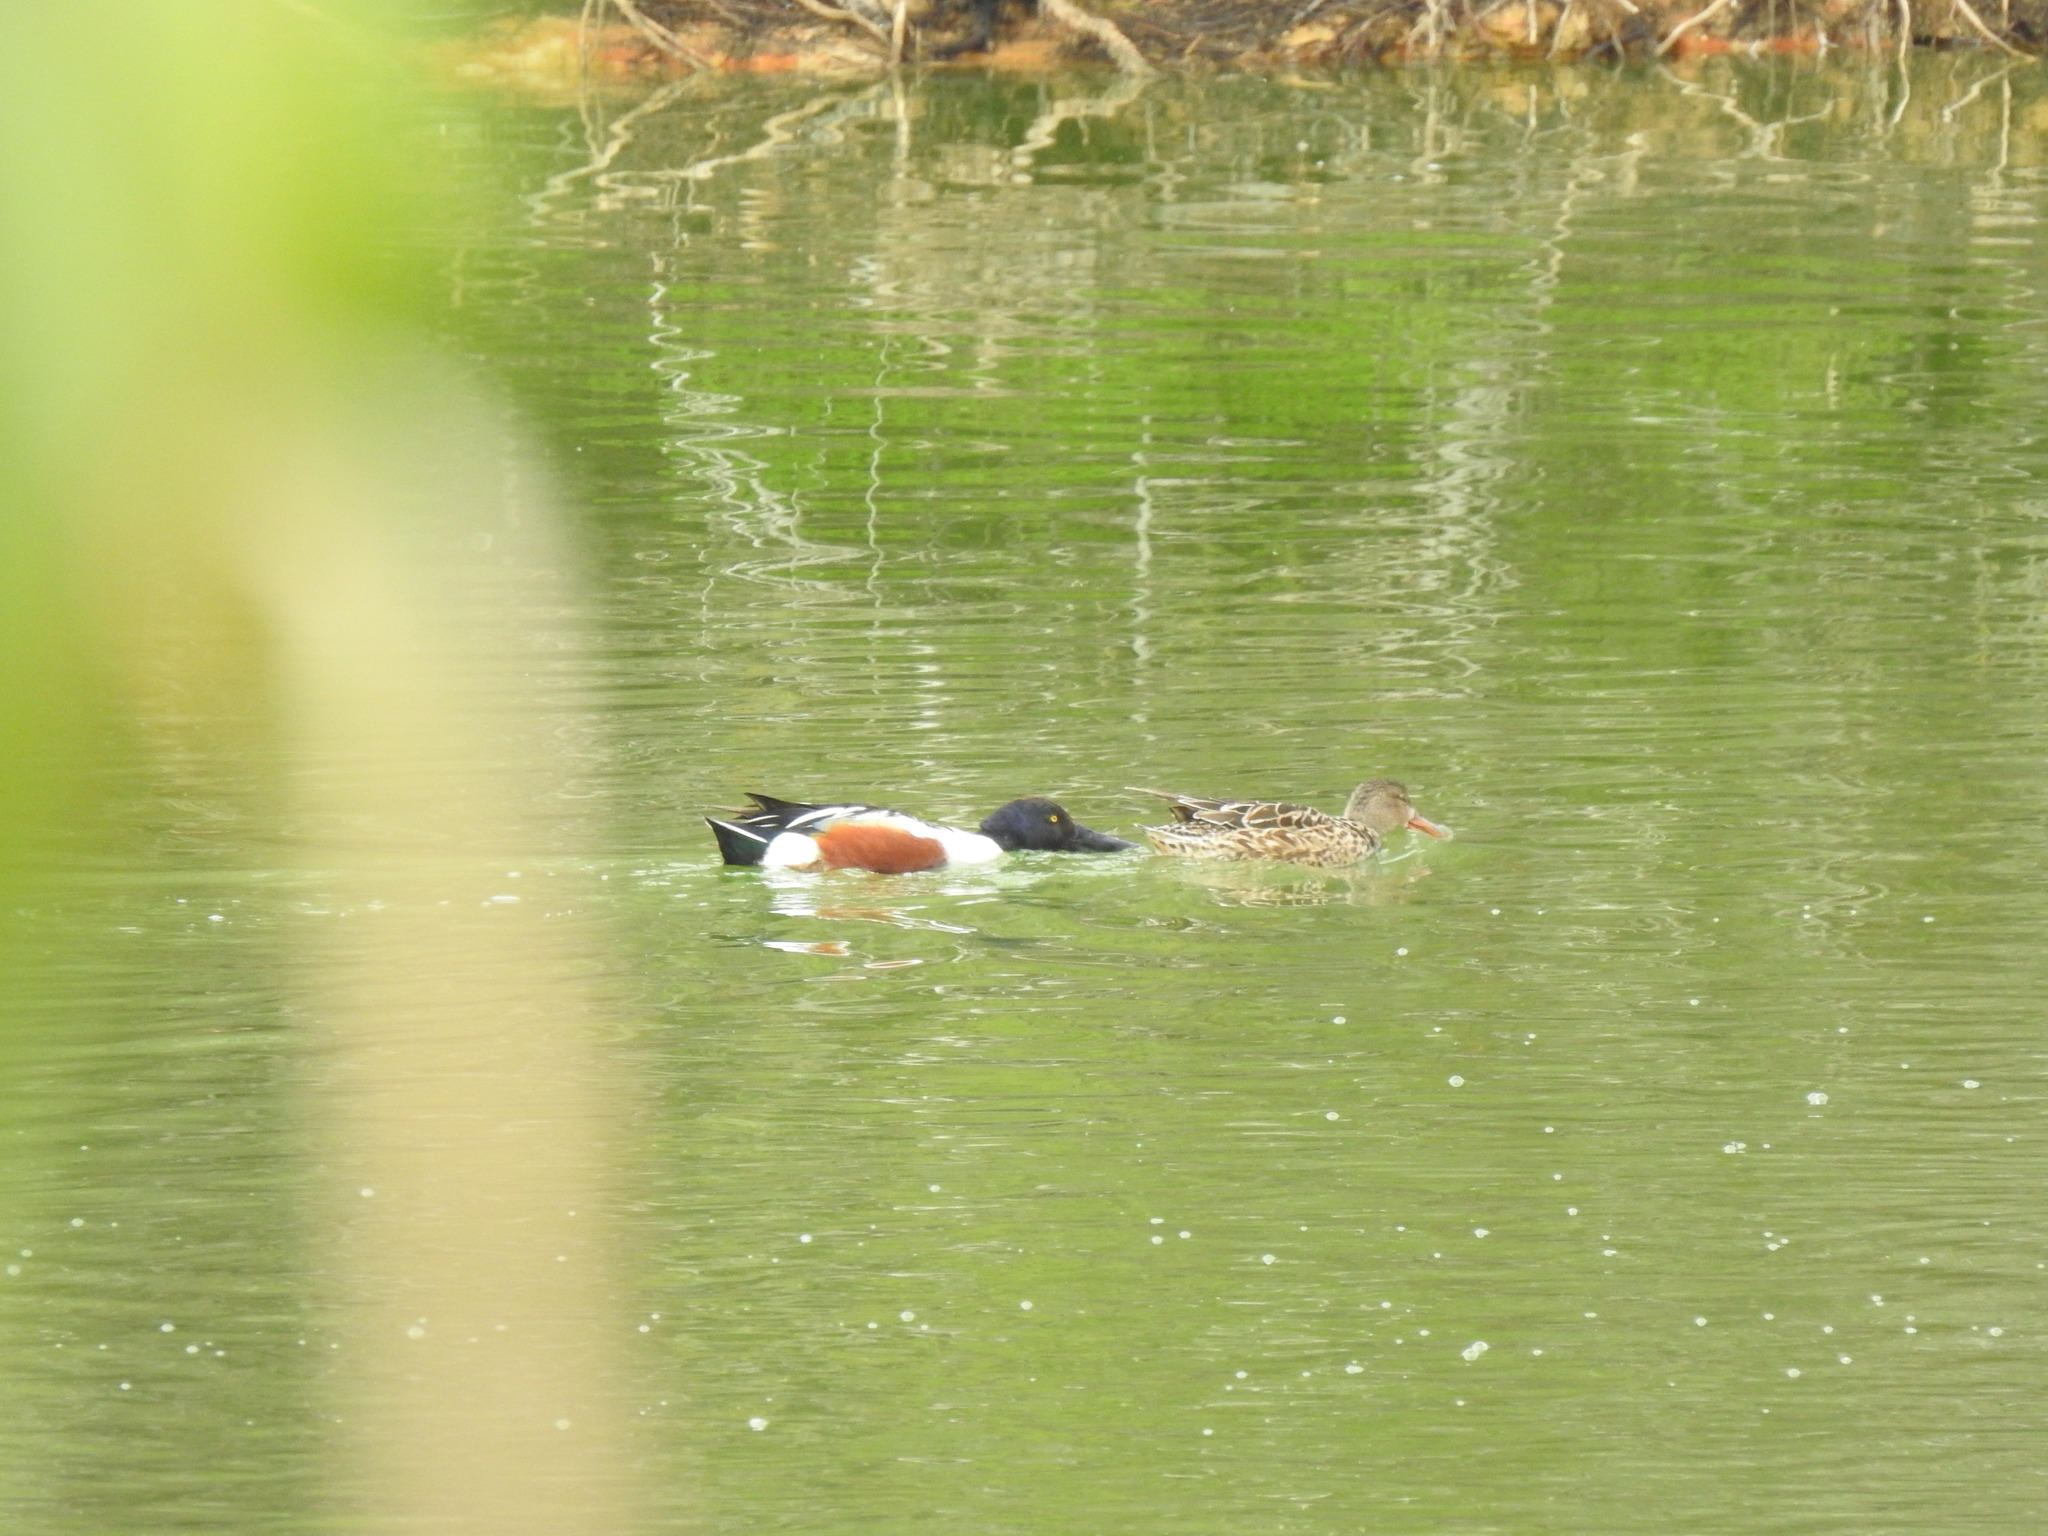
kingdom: Animalia
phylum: Chordata
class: Aves
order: Anseriformes
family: Anatidae
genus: Spatula
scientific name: Spatula clypeata
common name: Northern shoveler
